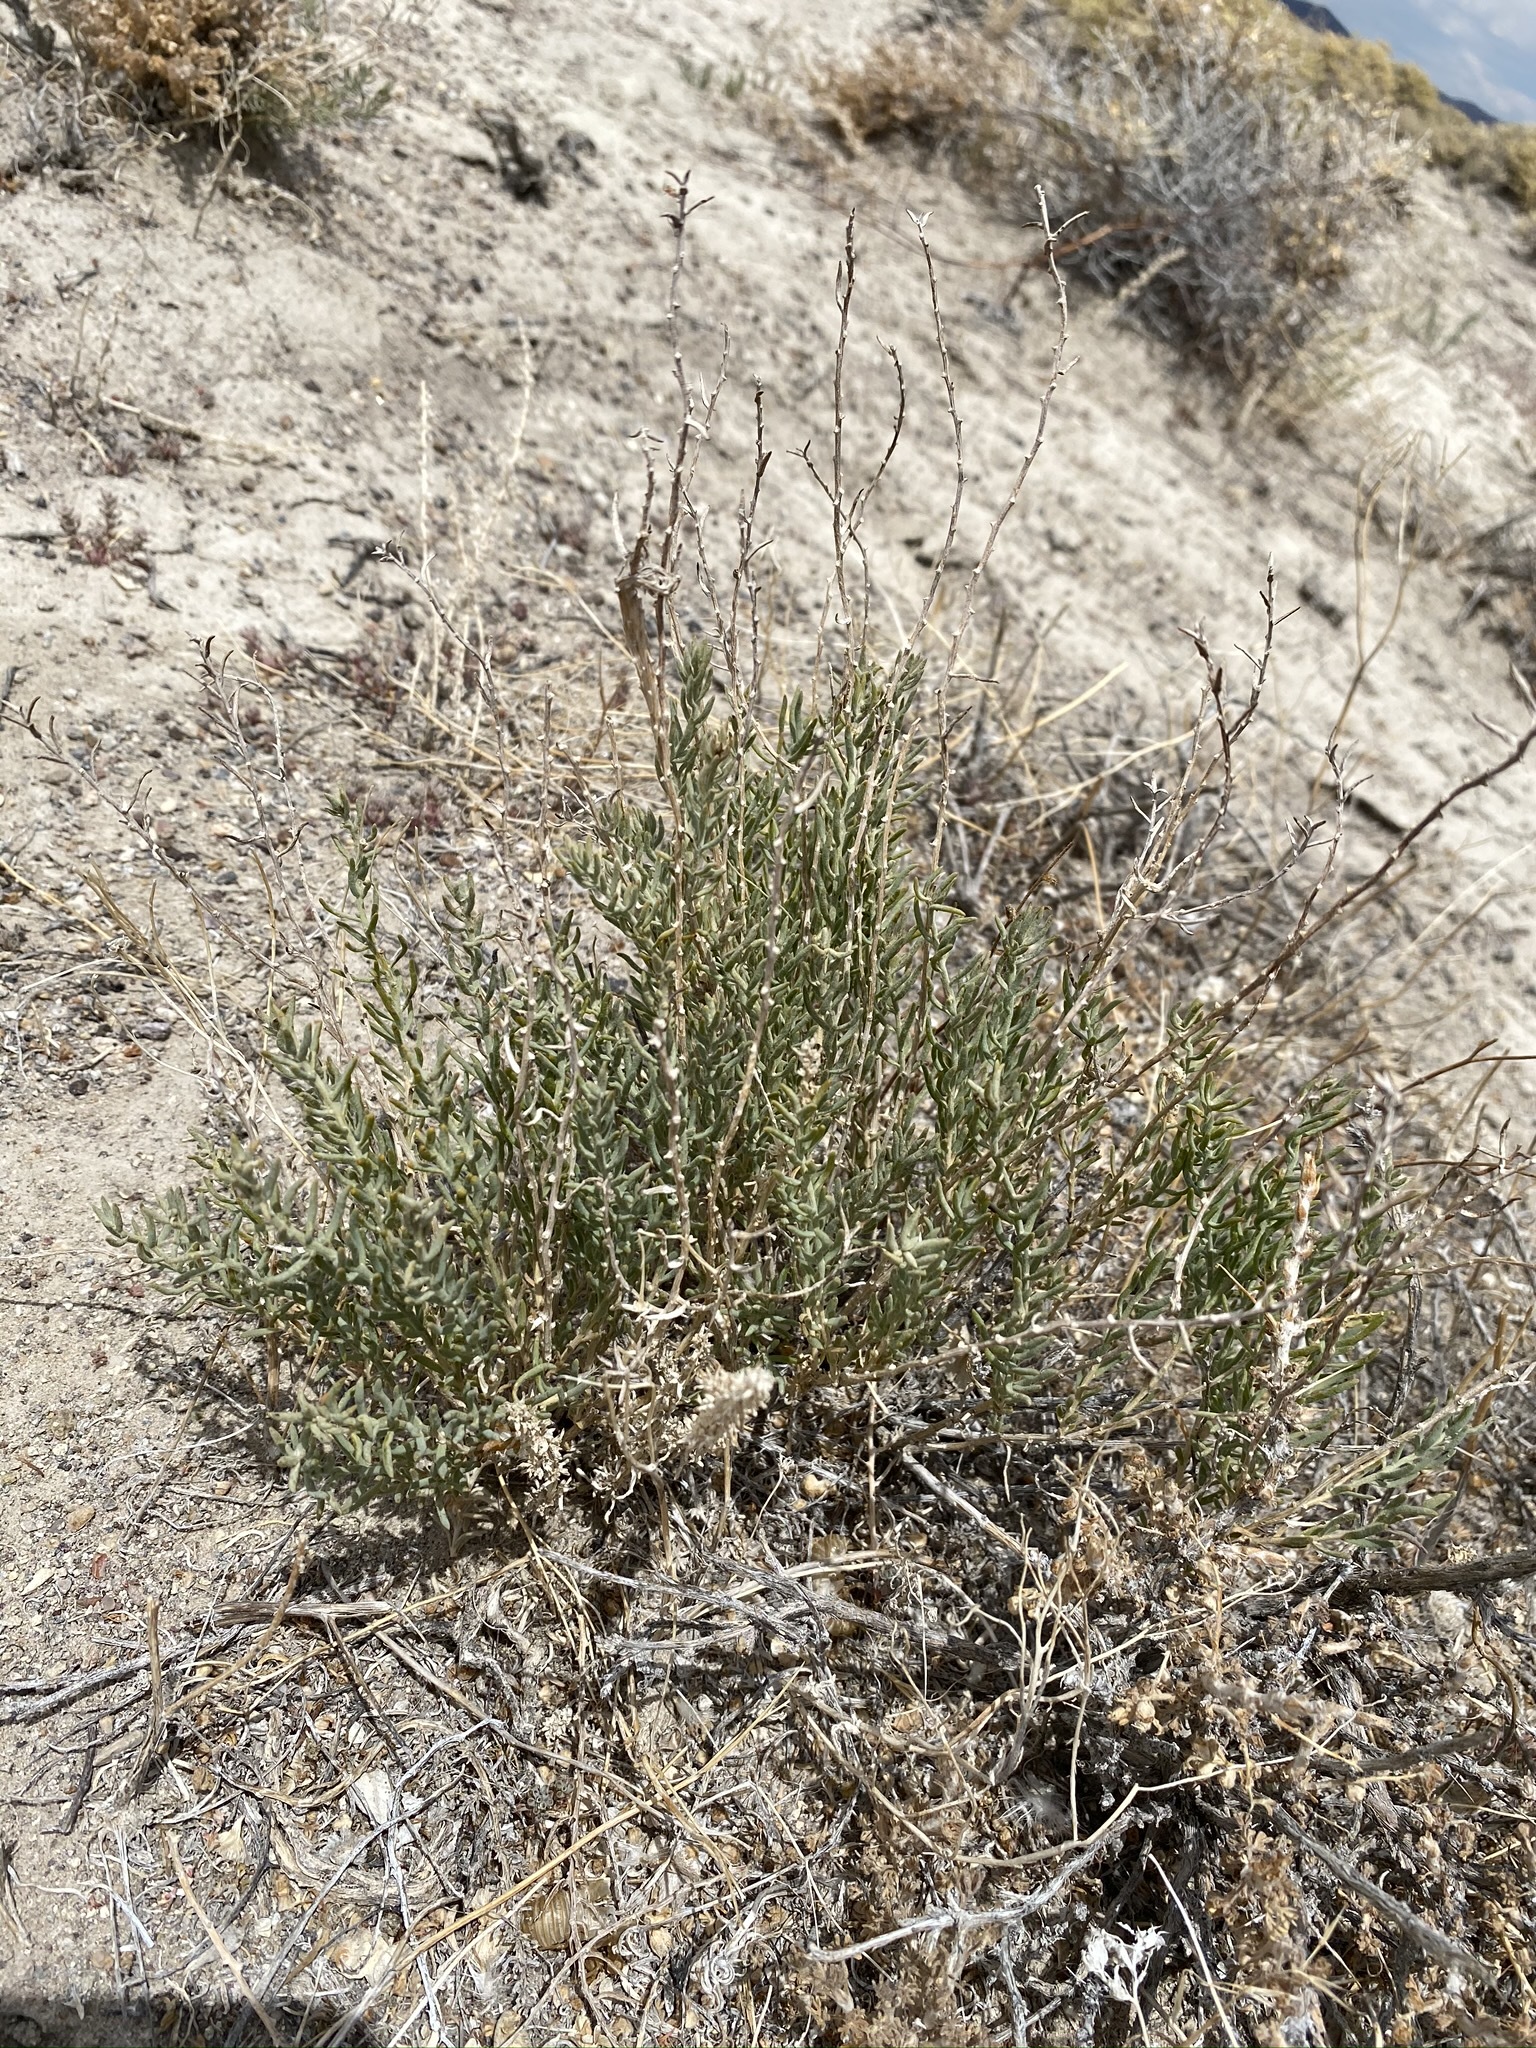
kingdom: Plantae
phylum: Tracheophyta
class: Magnoliopsida
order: Caryophyllales
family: Amaranthaceae
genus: Neokochia
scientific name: Neokochia americana
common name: Perennial summer-cypress
